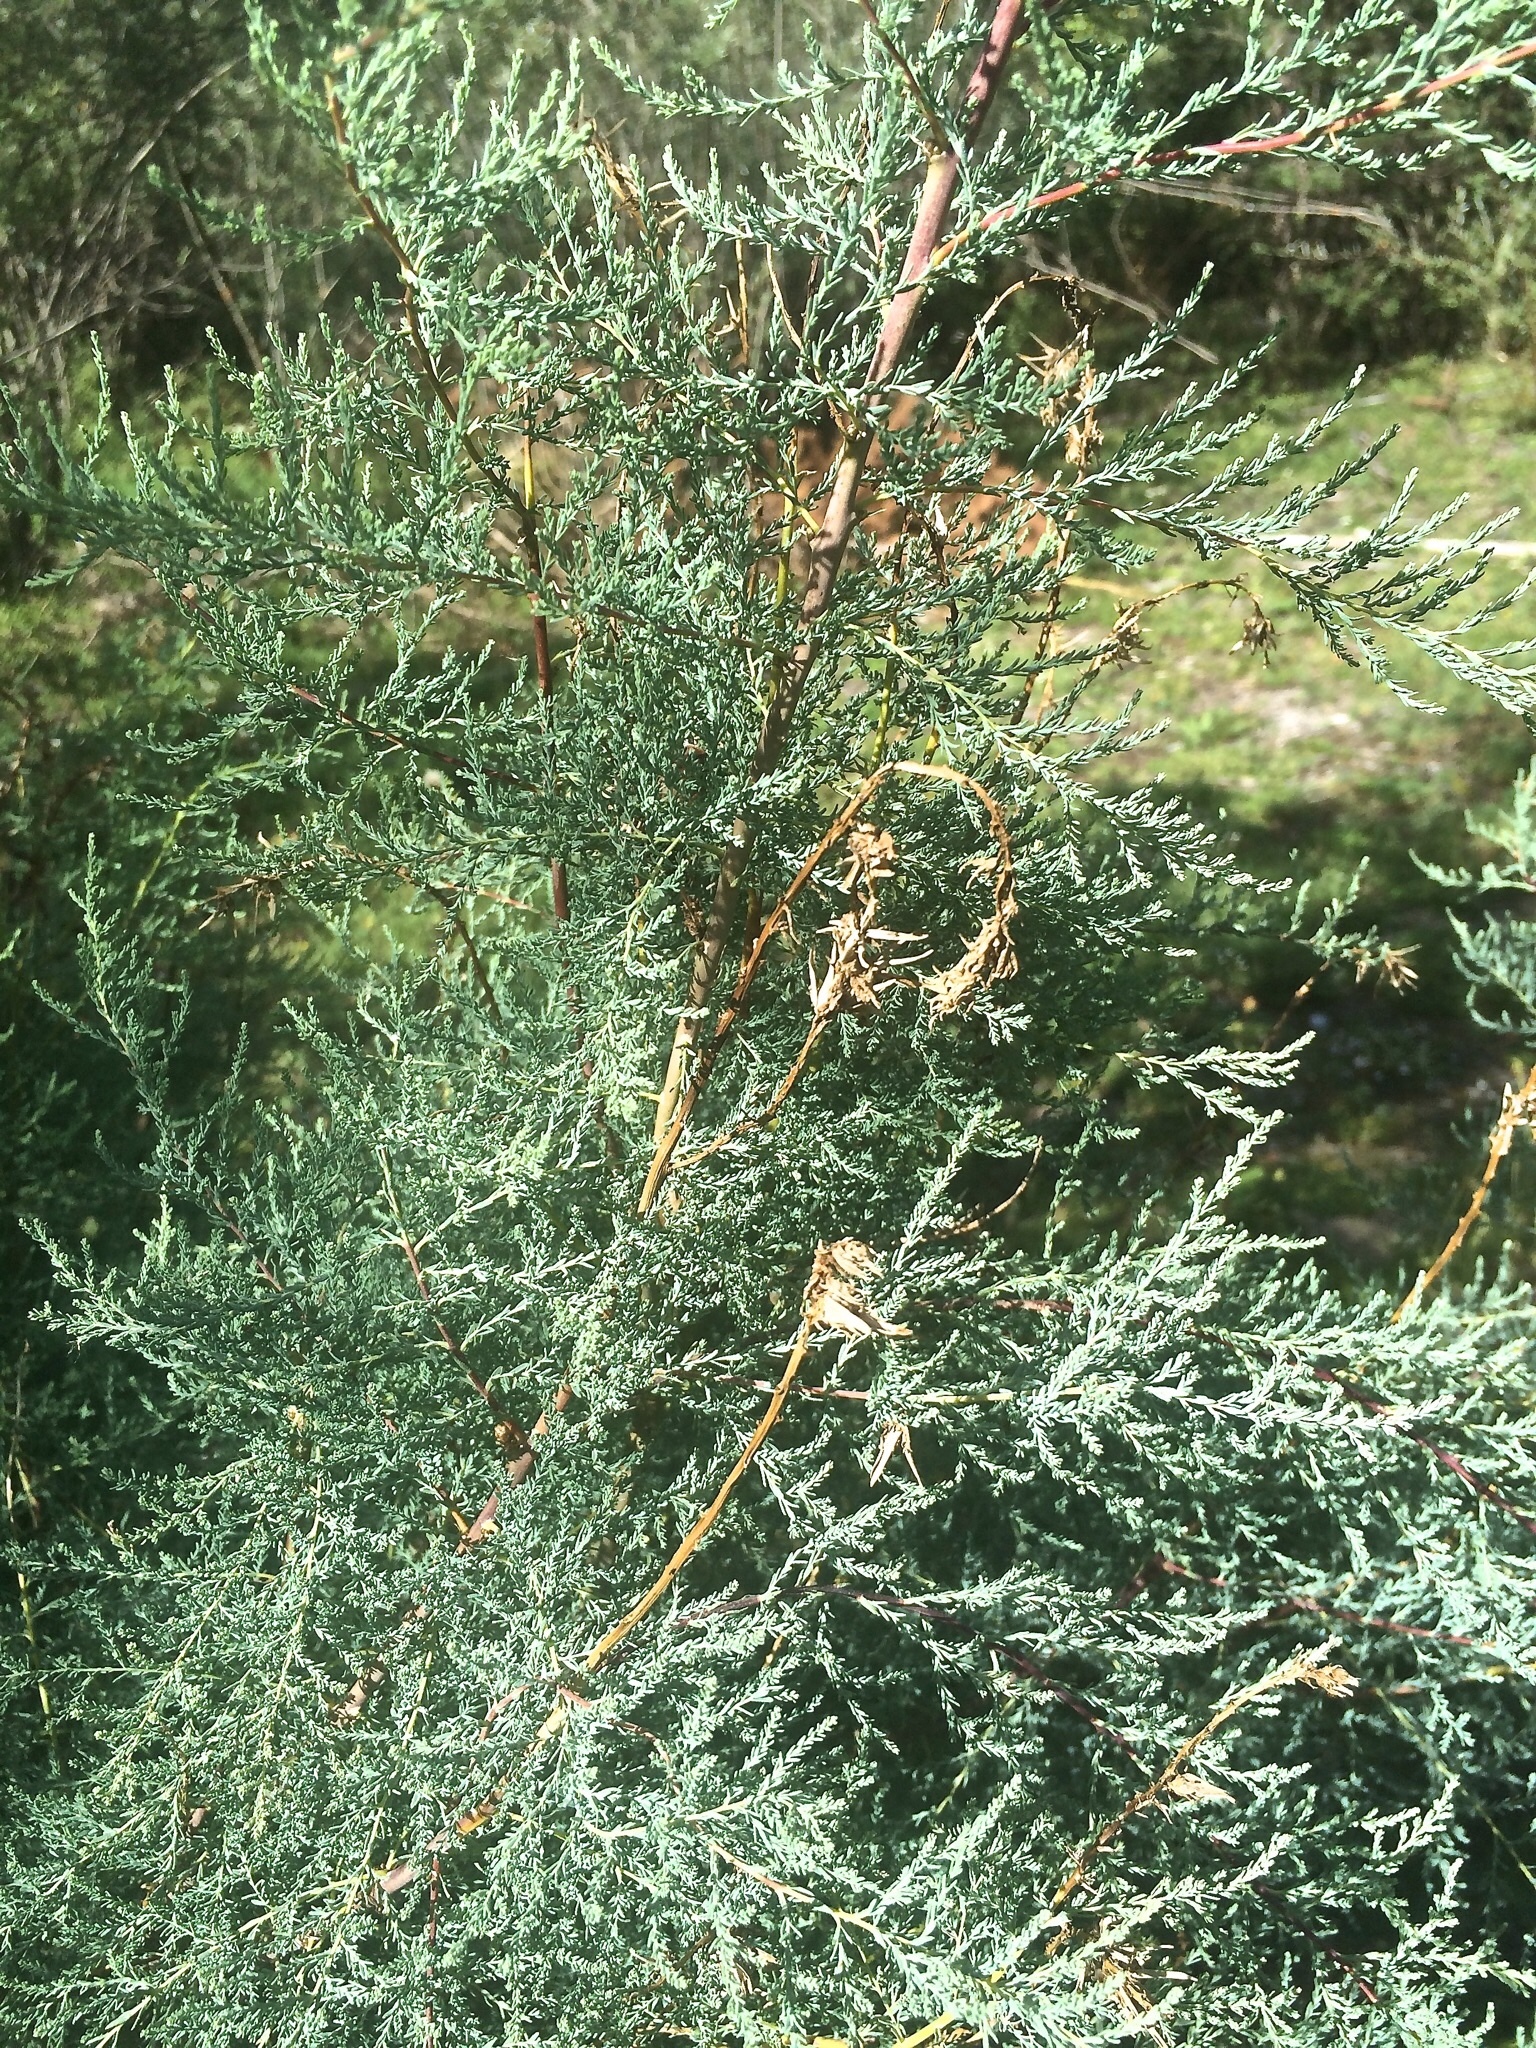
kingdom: Plantae
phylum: Tracheophyta
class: Magnoliopsida
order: Caryophyllales
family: Tamaricaceae
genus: Myricaria
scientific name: Myricaria germanica
